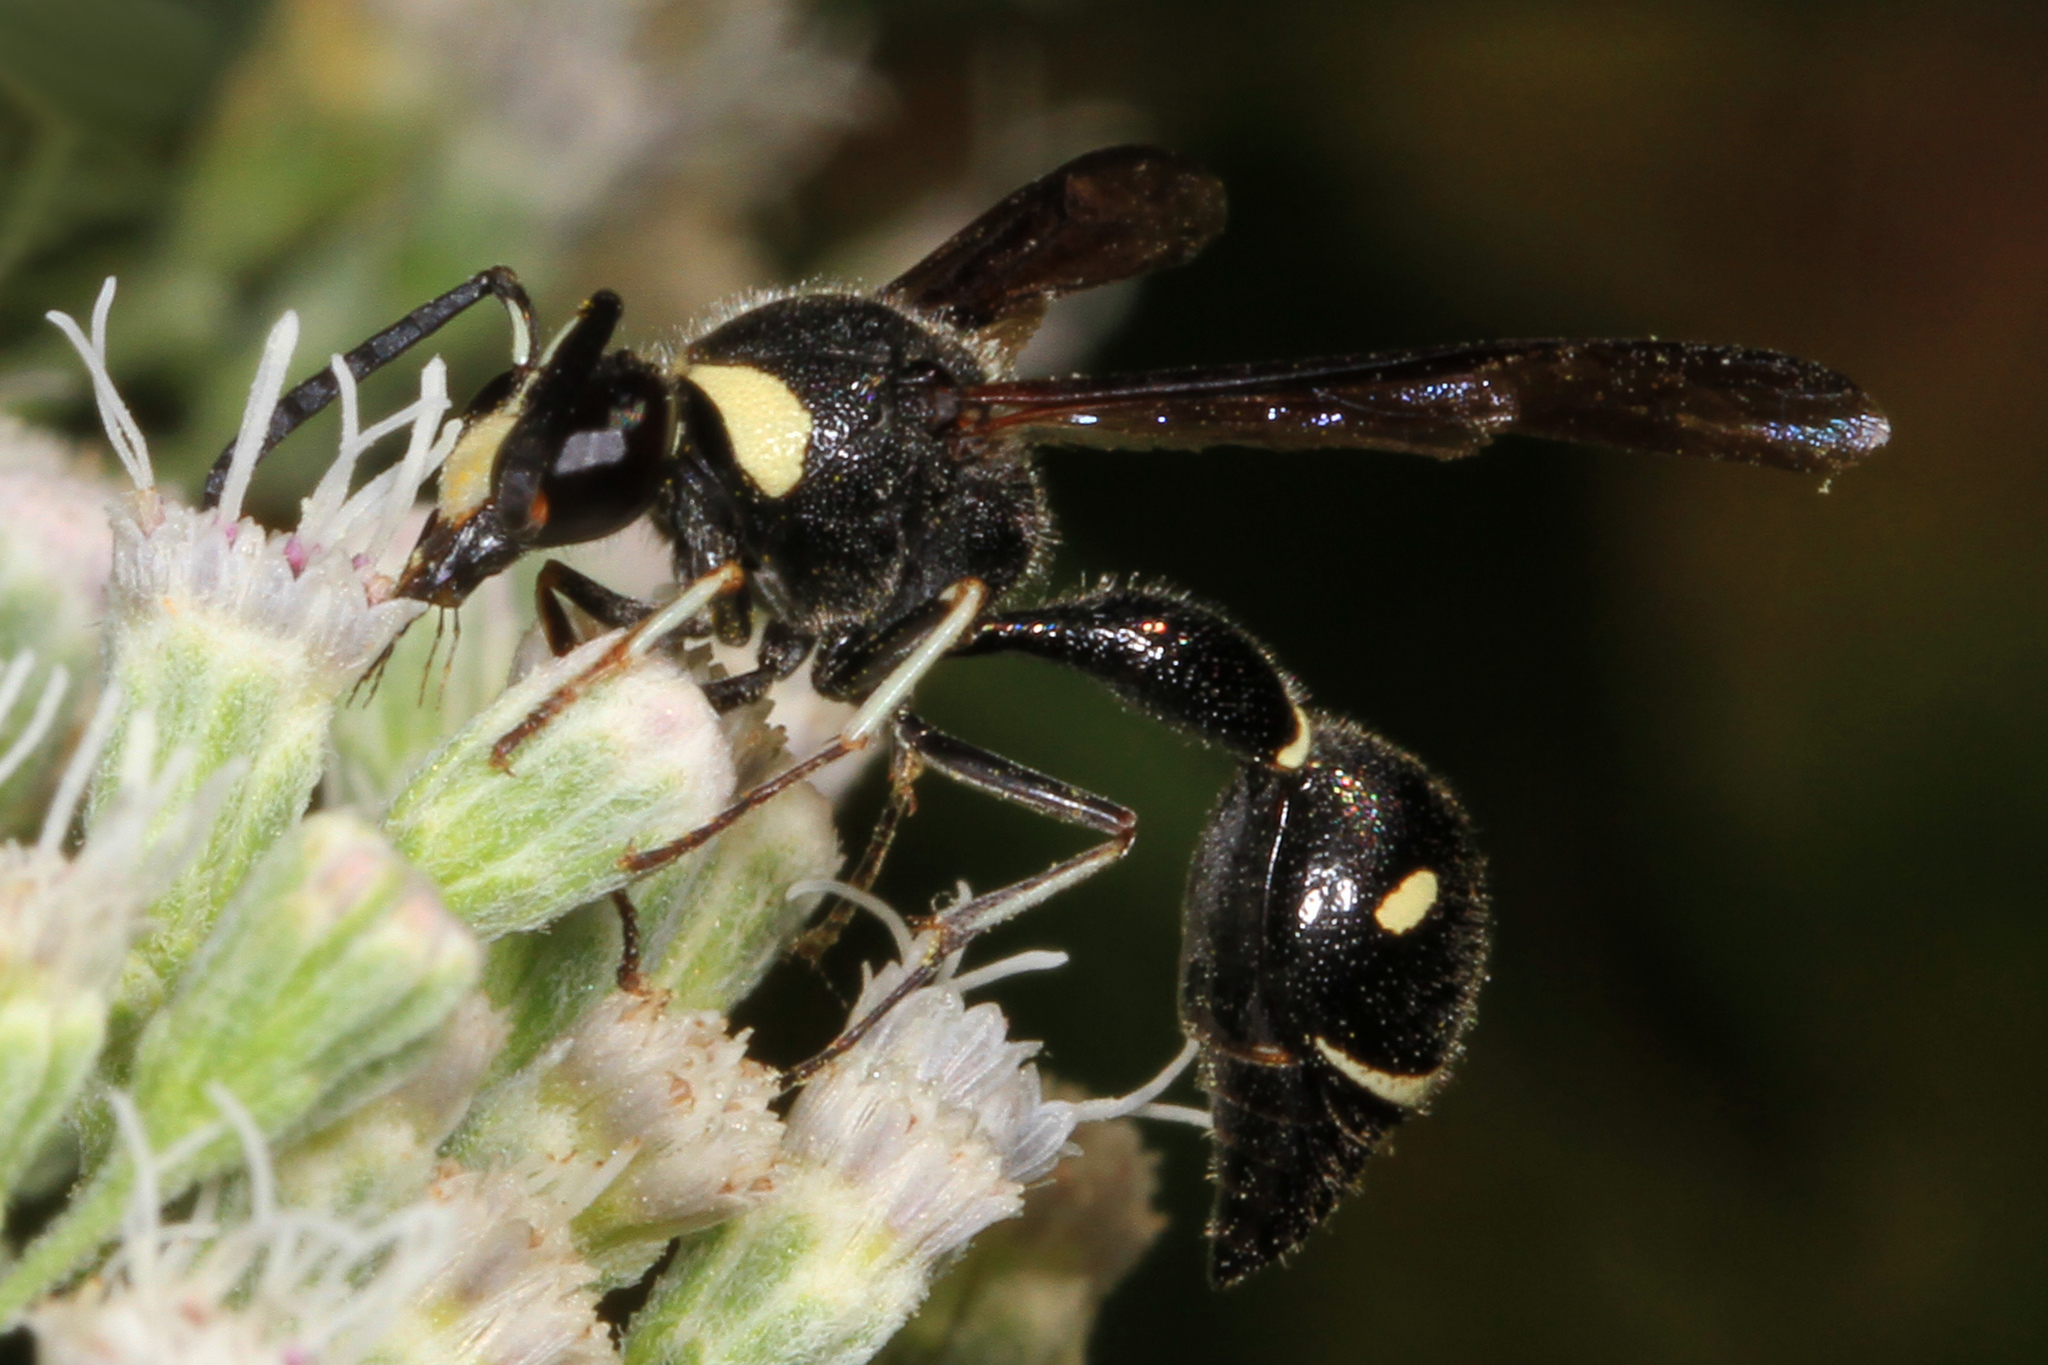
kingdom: Animalia
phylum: Arthropoda
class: Insecta
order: Hymenoptera
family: Vespidae
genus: Eumenes
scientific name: Eumenes fraternus
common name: Fraternal potter wasp
